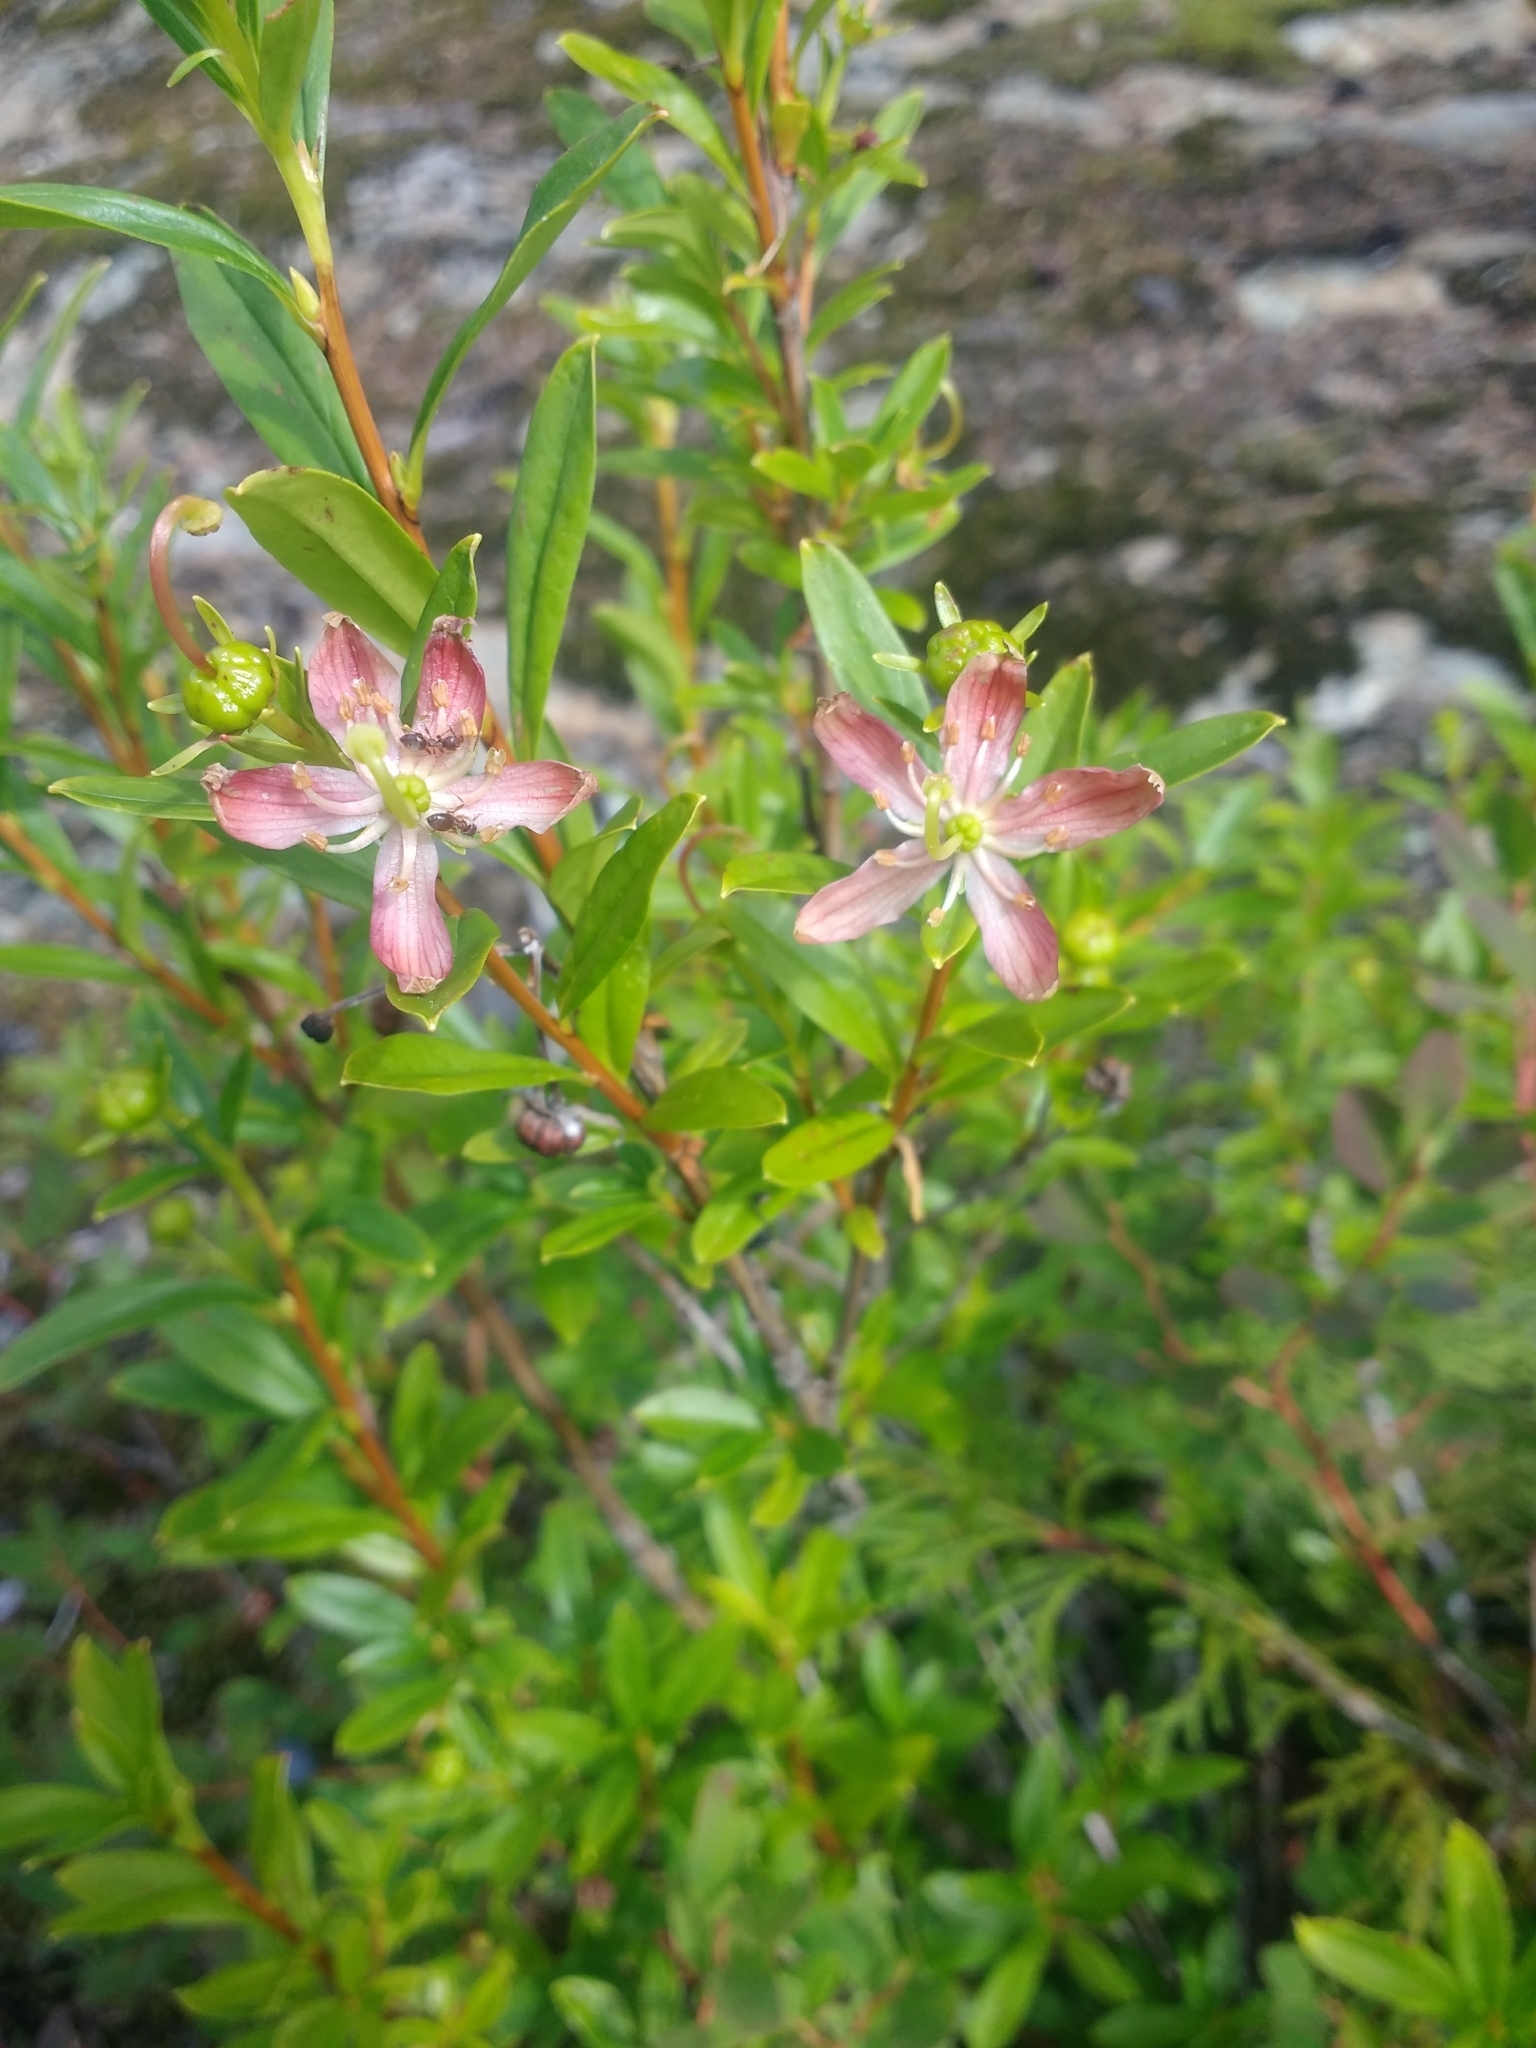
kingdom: Plantae
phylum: Tracheophyta
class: Magnoliopsida
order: Ericales
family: Ericaceae
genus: Elliottia
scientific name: Elliottia pyroliflora
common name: Copperbush
